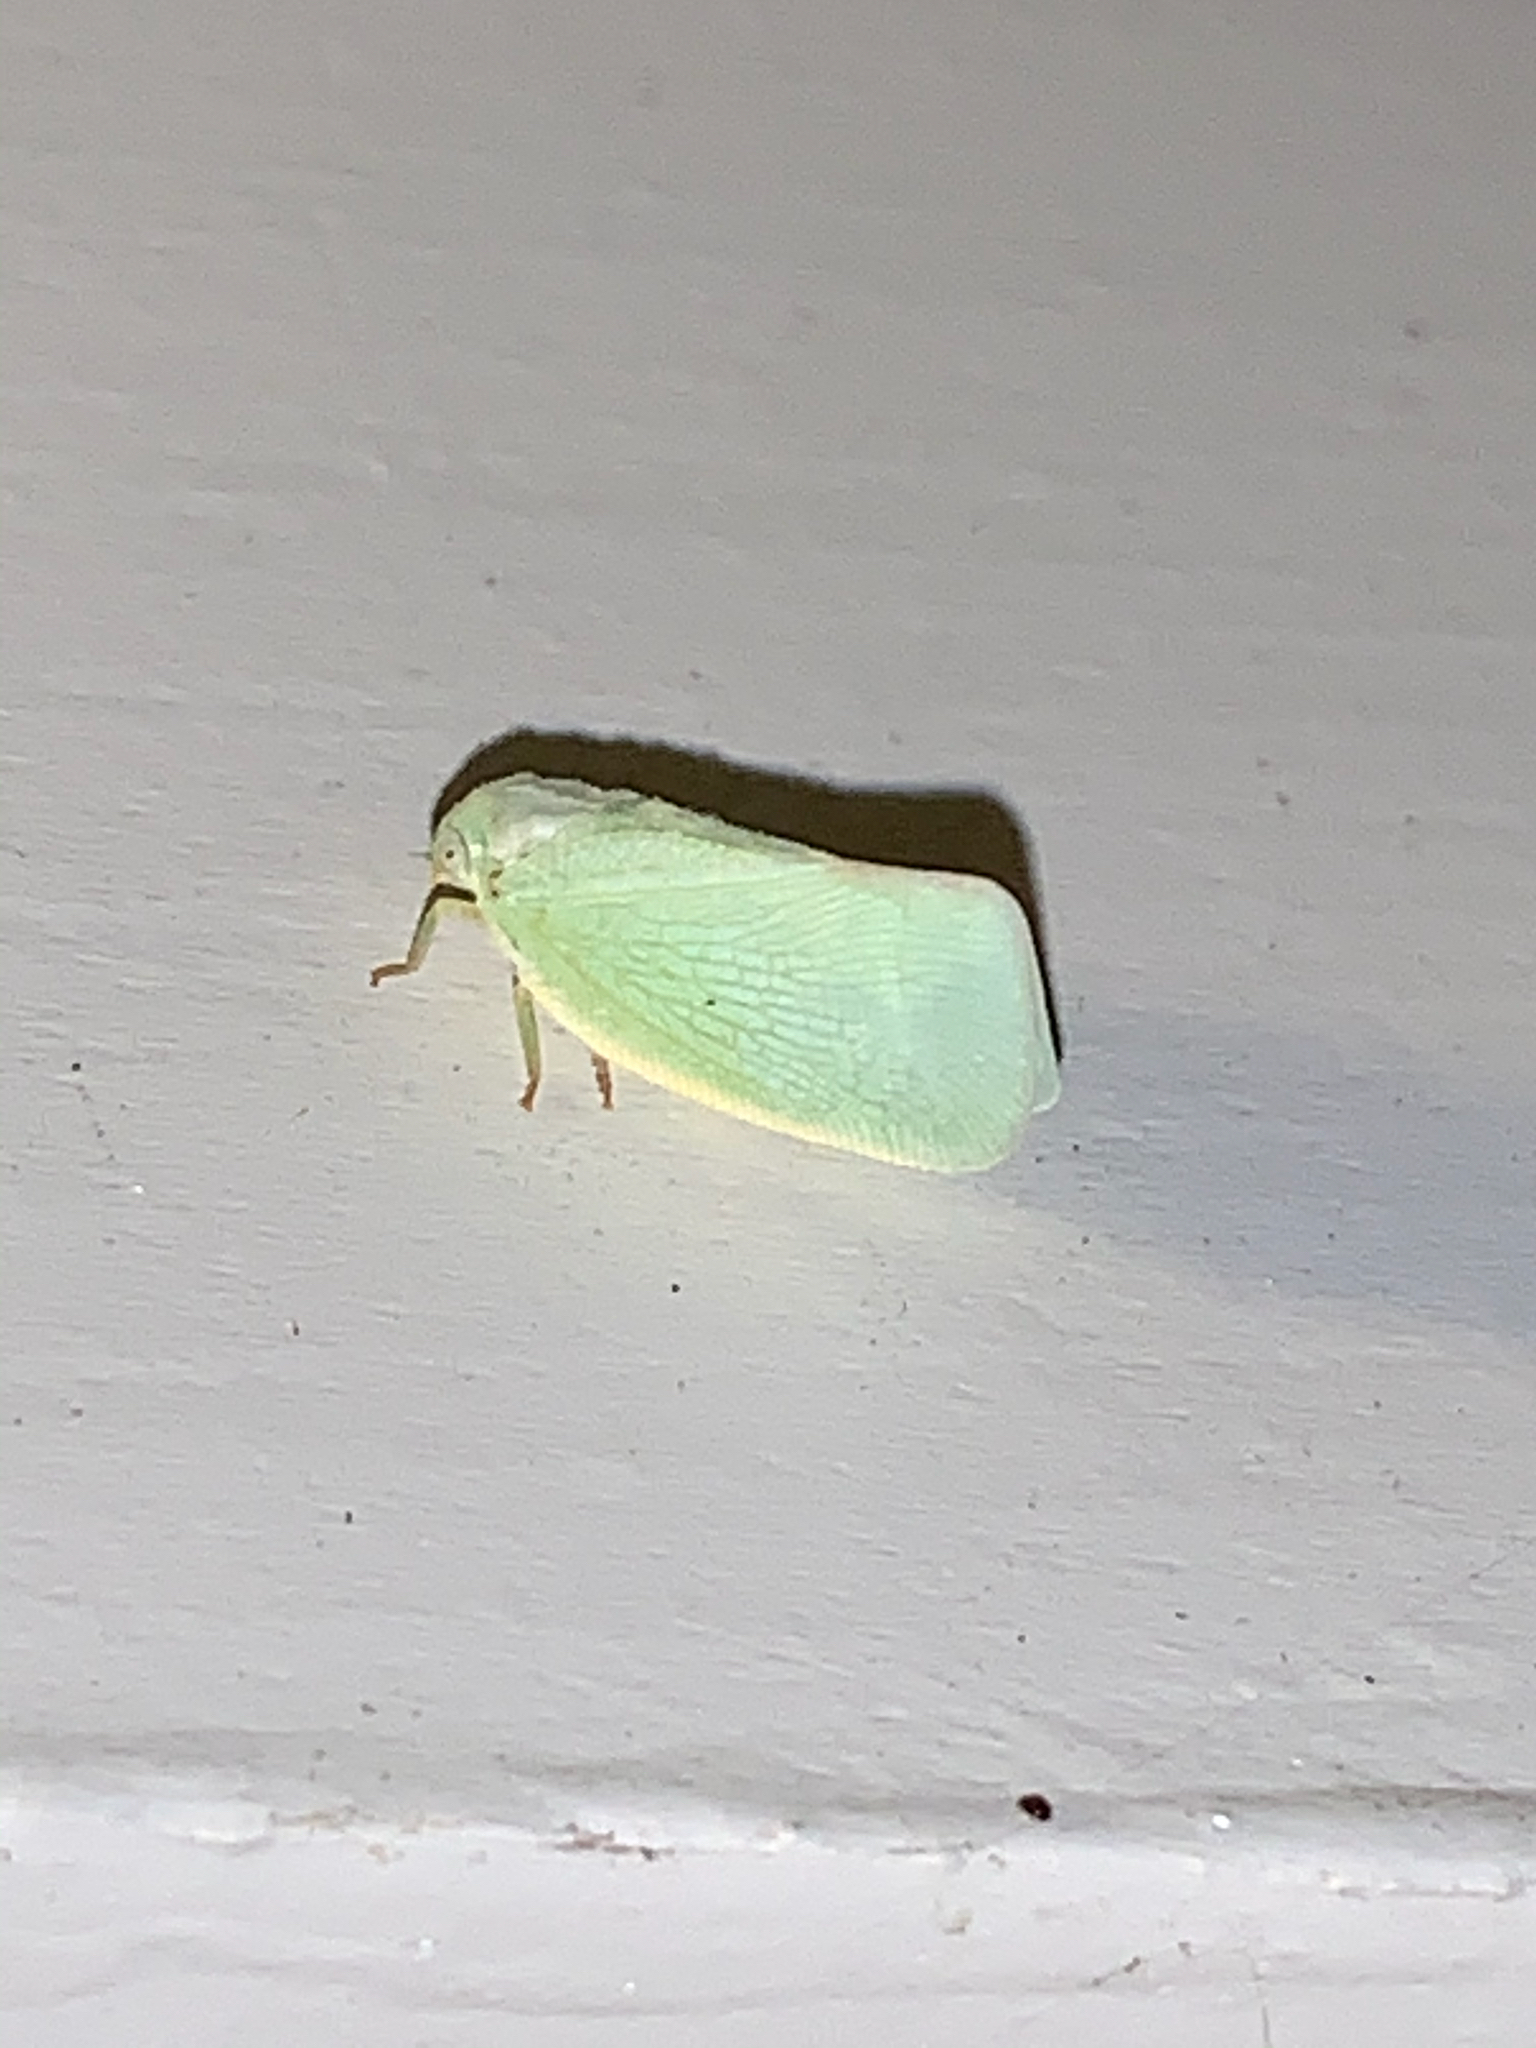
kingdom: Animalia
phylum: Arthropoda
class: Insecta
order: Hemiptera
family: Flatidae
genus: Flatormenis
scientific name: Flatormenis proxima
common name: Northern flatid planthopper
